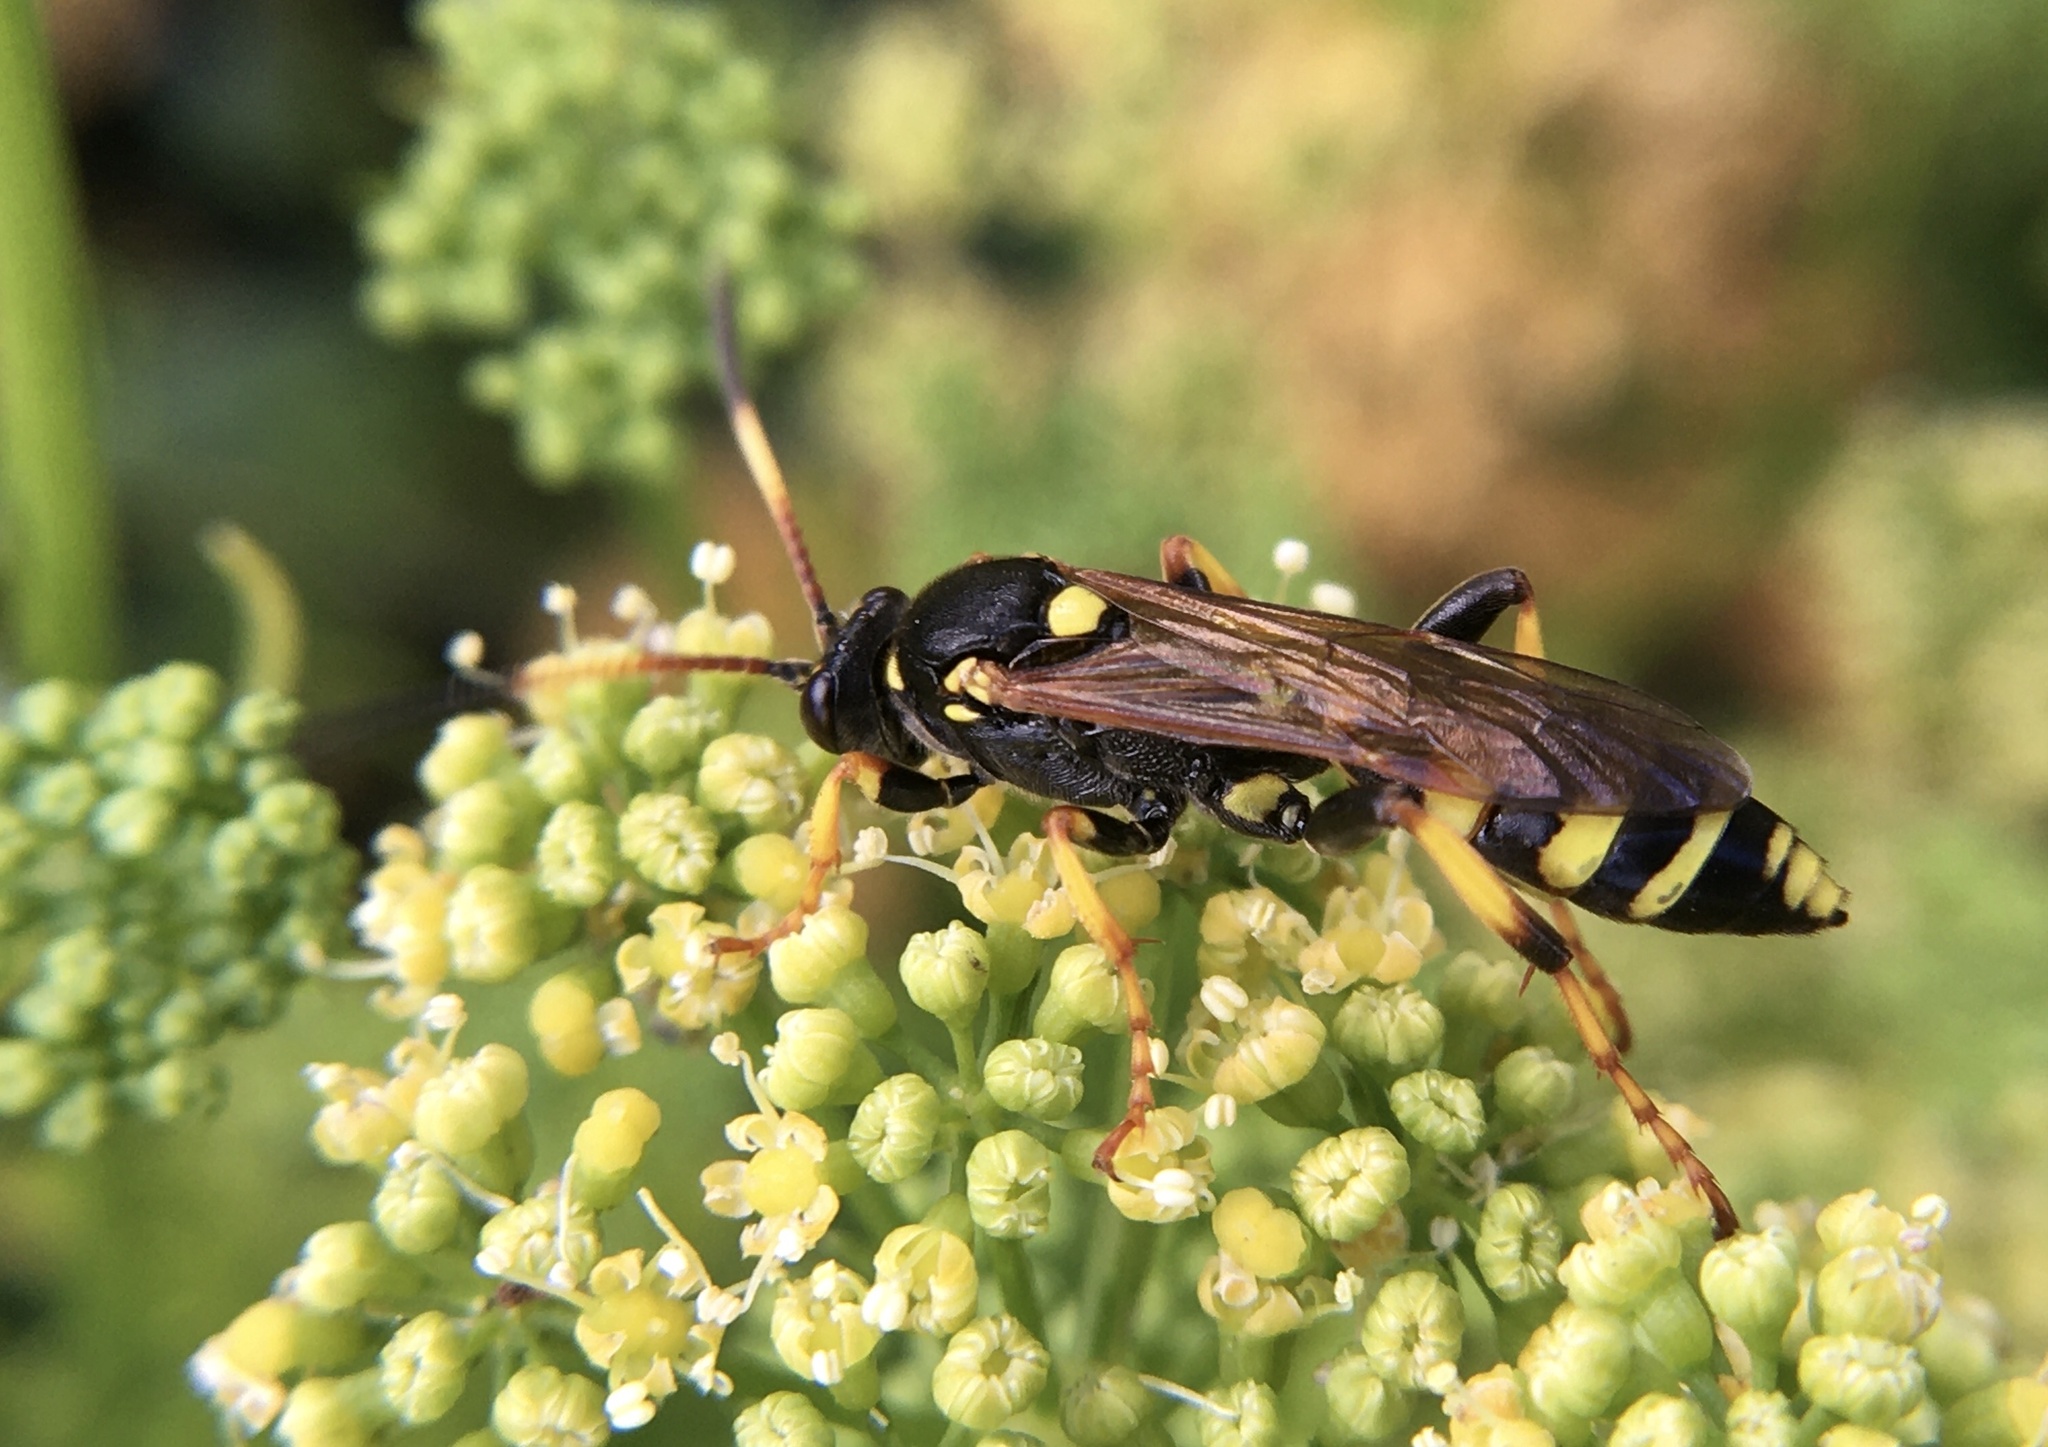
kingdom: Animalia
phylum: Arthropoda
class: Insecta
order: Hymenoptera
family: Ichneumonidae
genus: Ichneumon
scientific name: Ichneumon xanthorius
